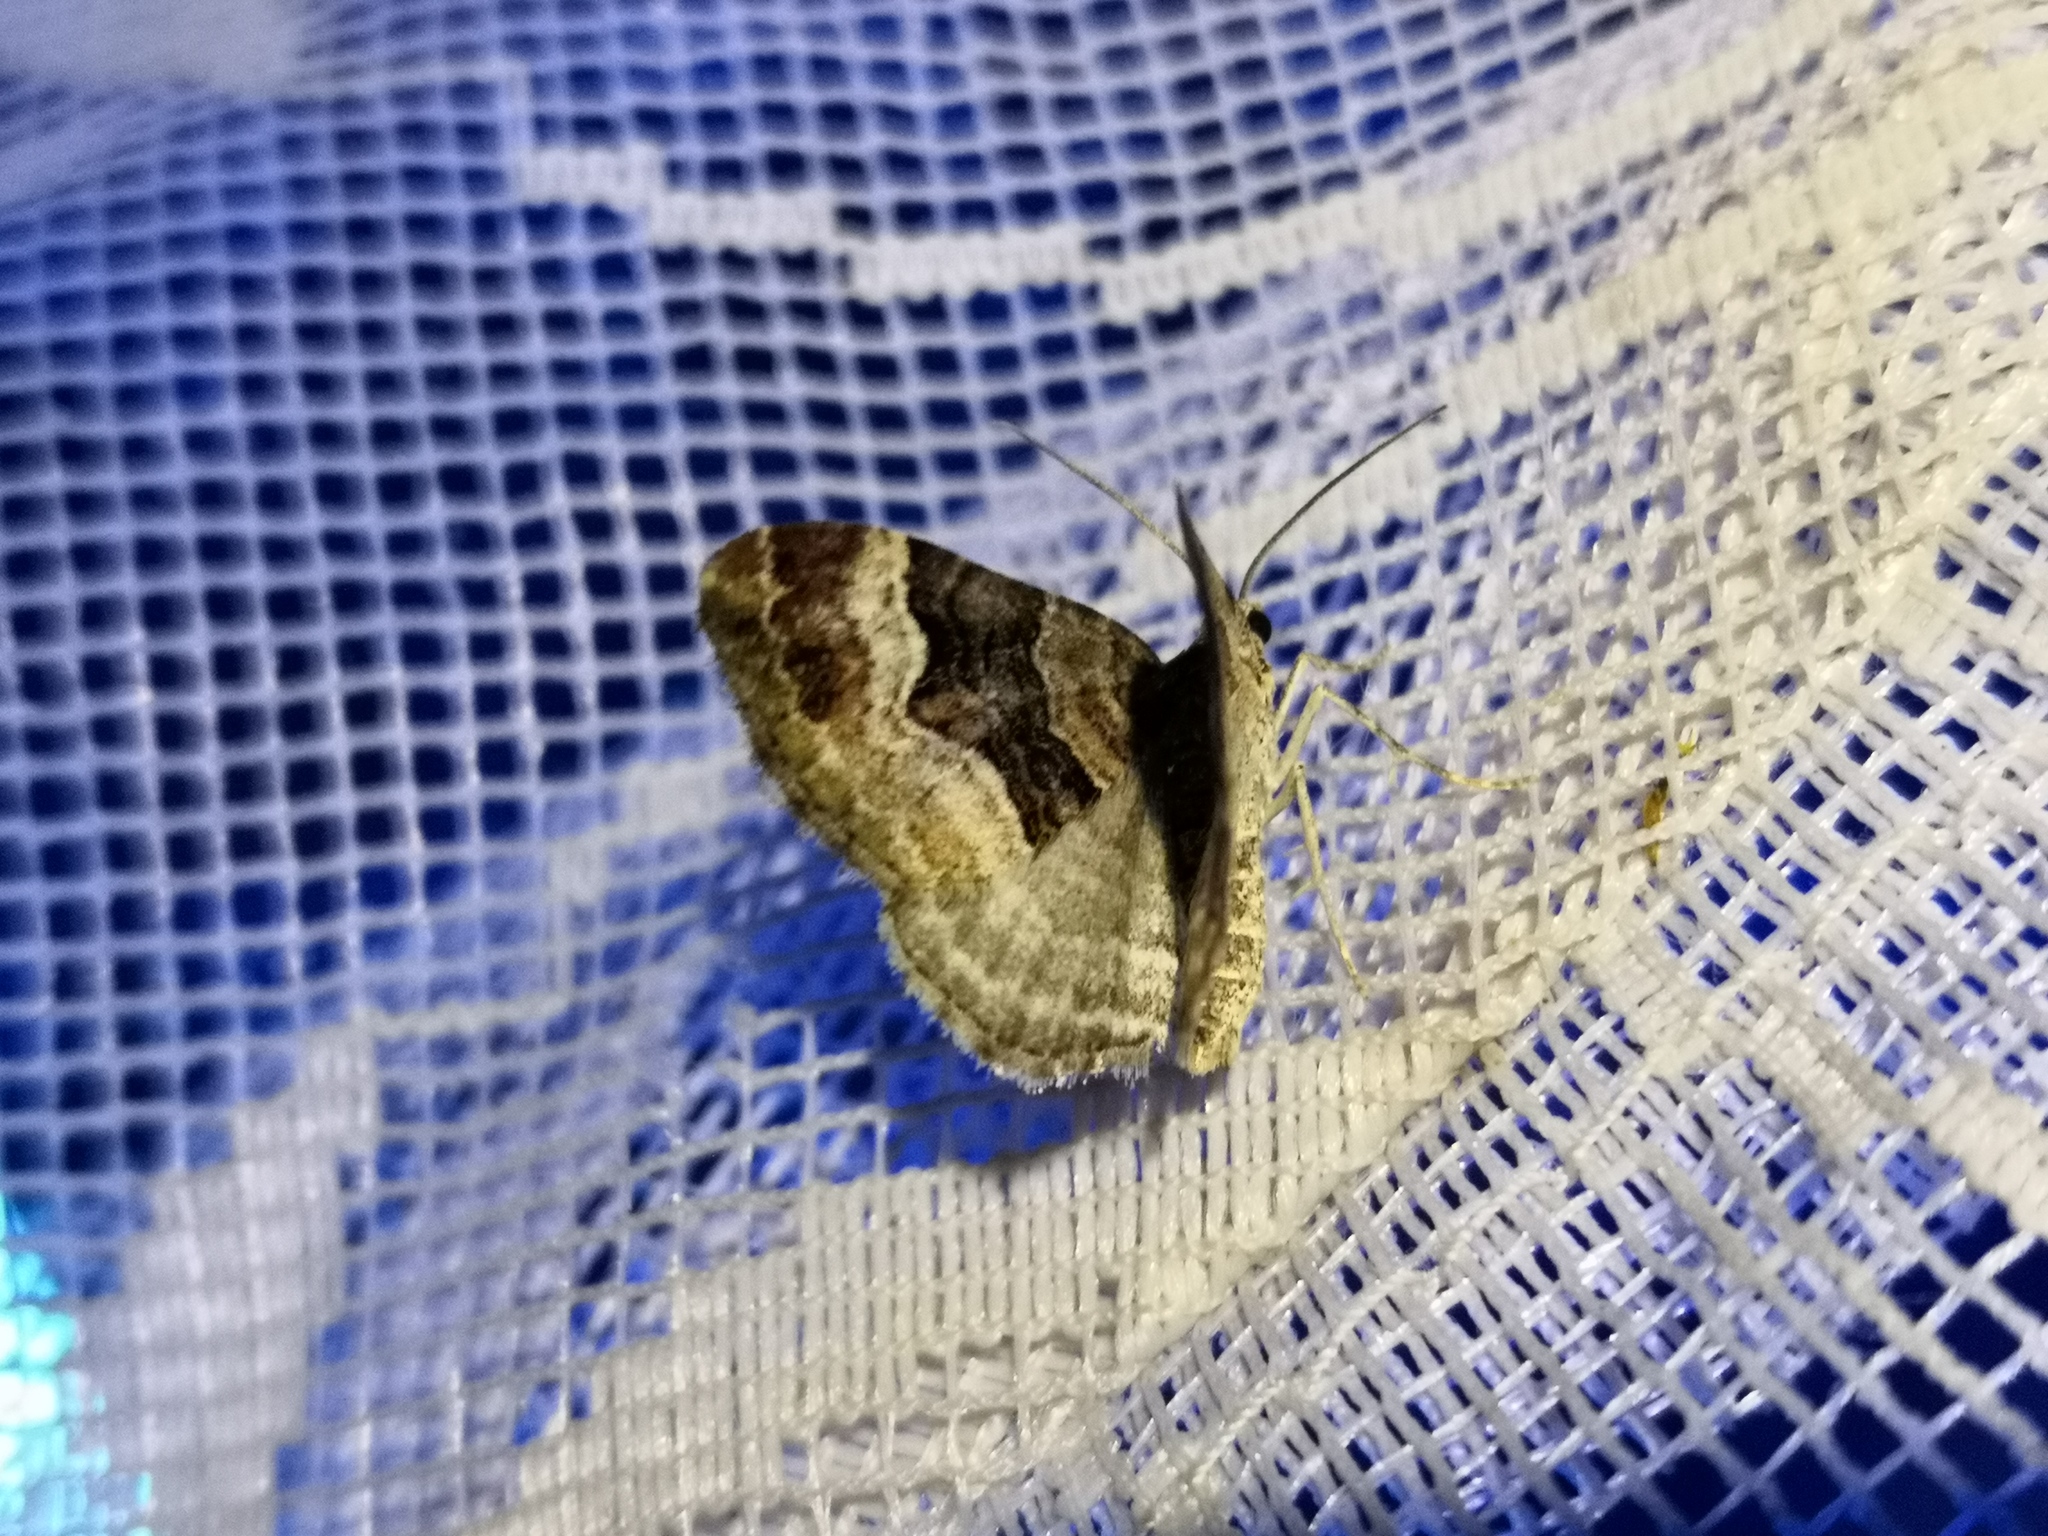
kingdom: Animalia
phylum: Arthropoda
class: Insecta
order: Lepidoptera
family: Geometridae
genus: Xanthorhoe
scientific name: Xanthorhoe biriviata
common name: Balsam carpet
